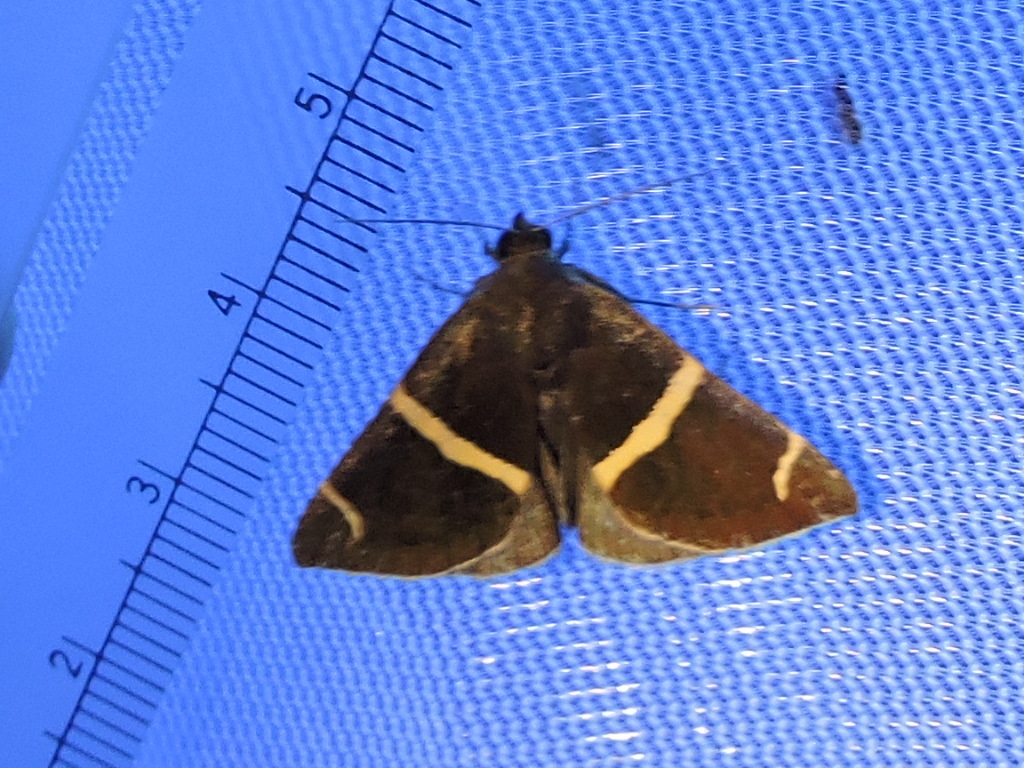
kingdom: Animalia
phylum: Arthropoda
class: Insecta
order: Lepidoptera
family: Erebidae
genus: Argyrostrotis
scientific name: Argyrostrotis anilis
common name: Short-lined chocolate
